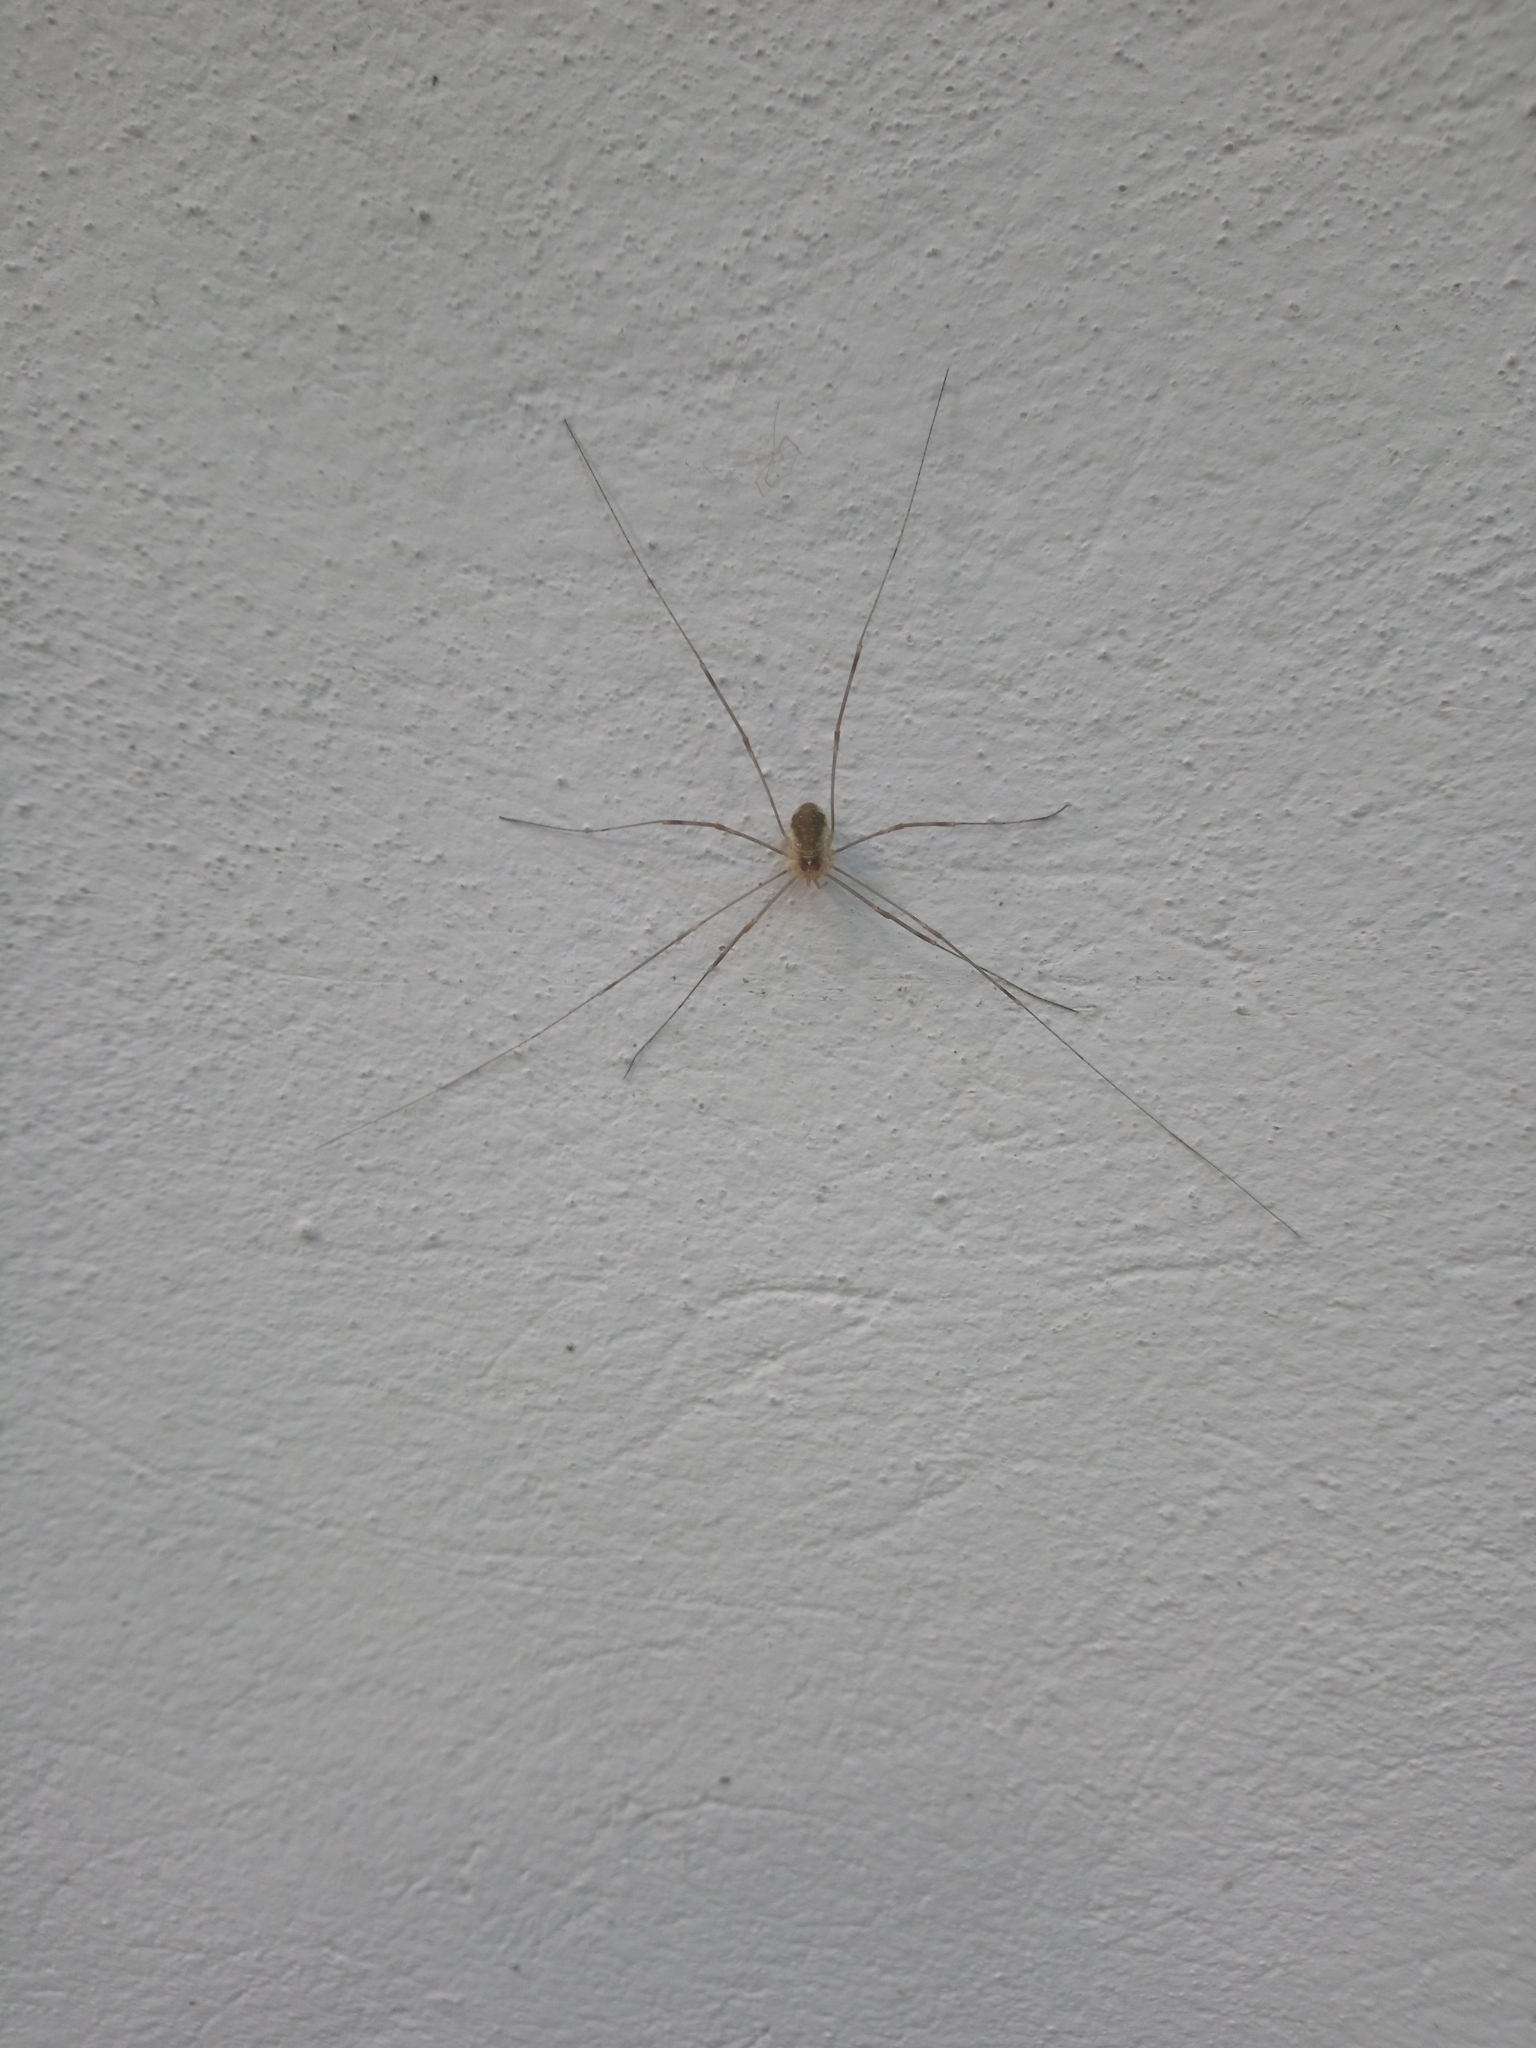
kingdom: Animalia
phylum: Arthropoda
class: Arachnida
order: Opiliones
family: Phalangiidae
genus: Opilio
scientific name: Opilio canestrinii
